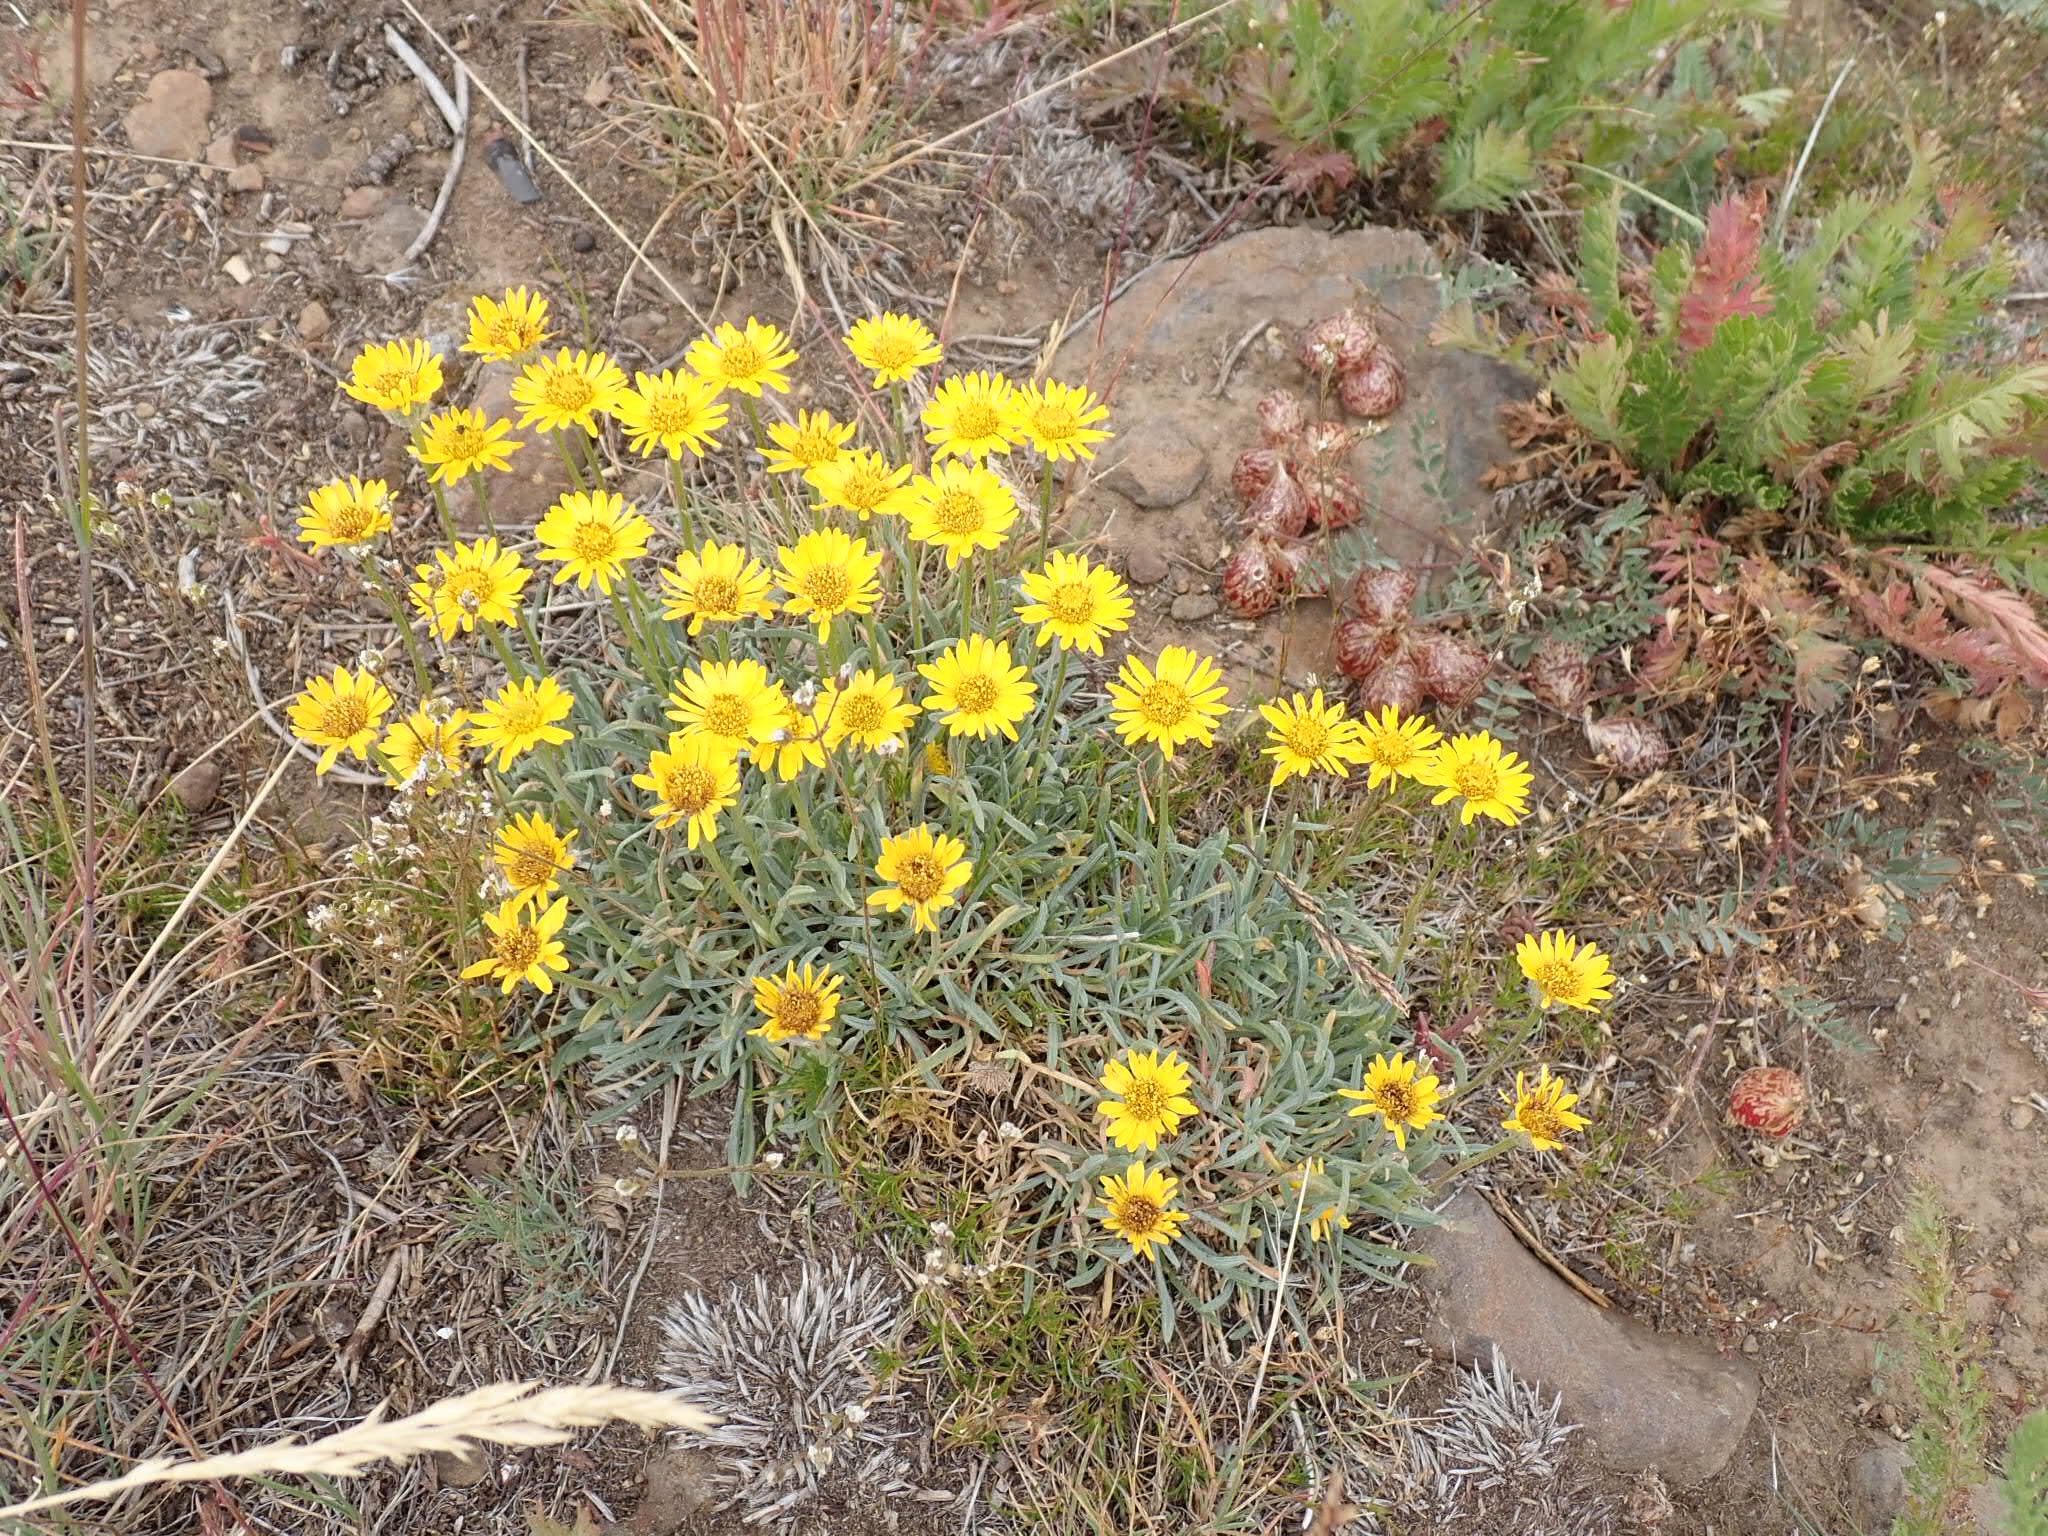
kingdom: Plantae
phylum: Tracheophyta
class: Magnoliopsida
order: Asterales
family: Asteraceae
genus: Erigeron
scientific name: Erigeron linearis
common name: Desert yellow fleabane
